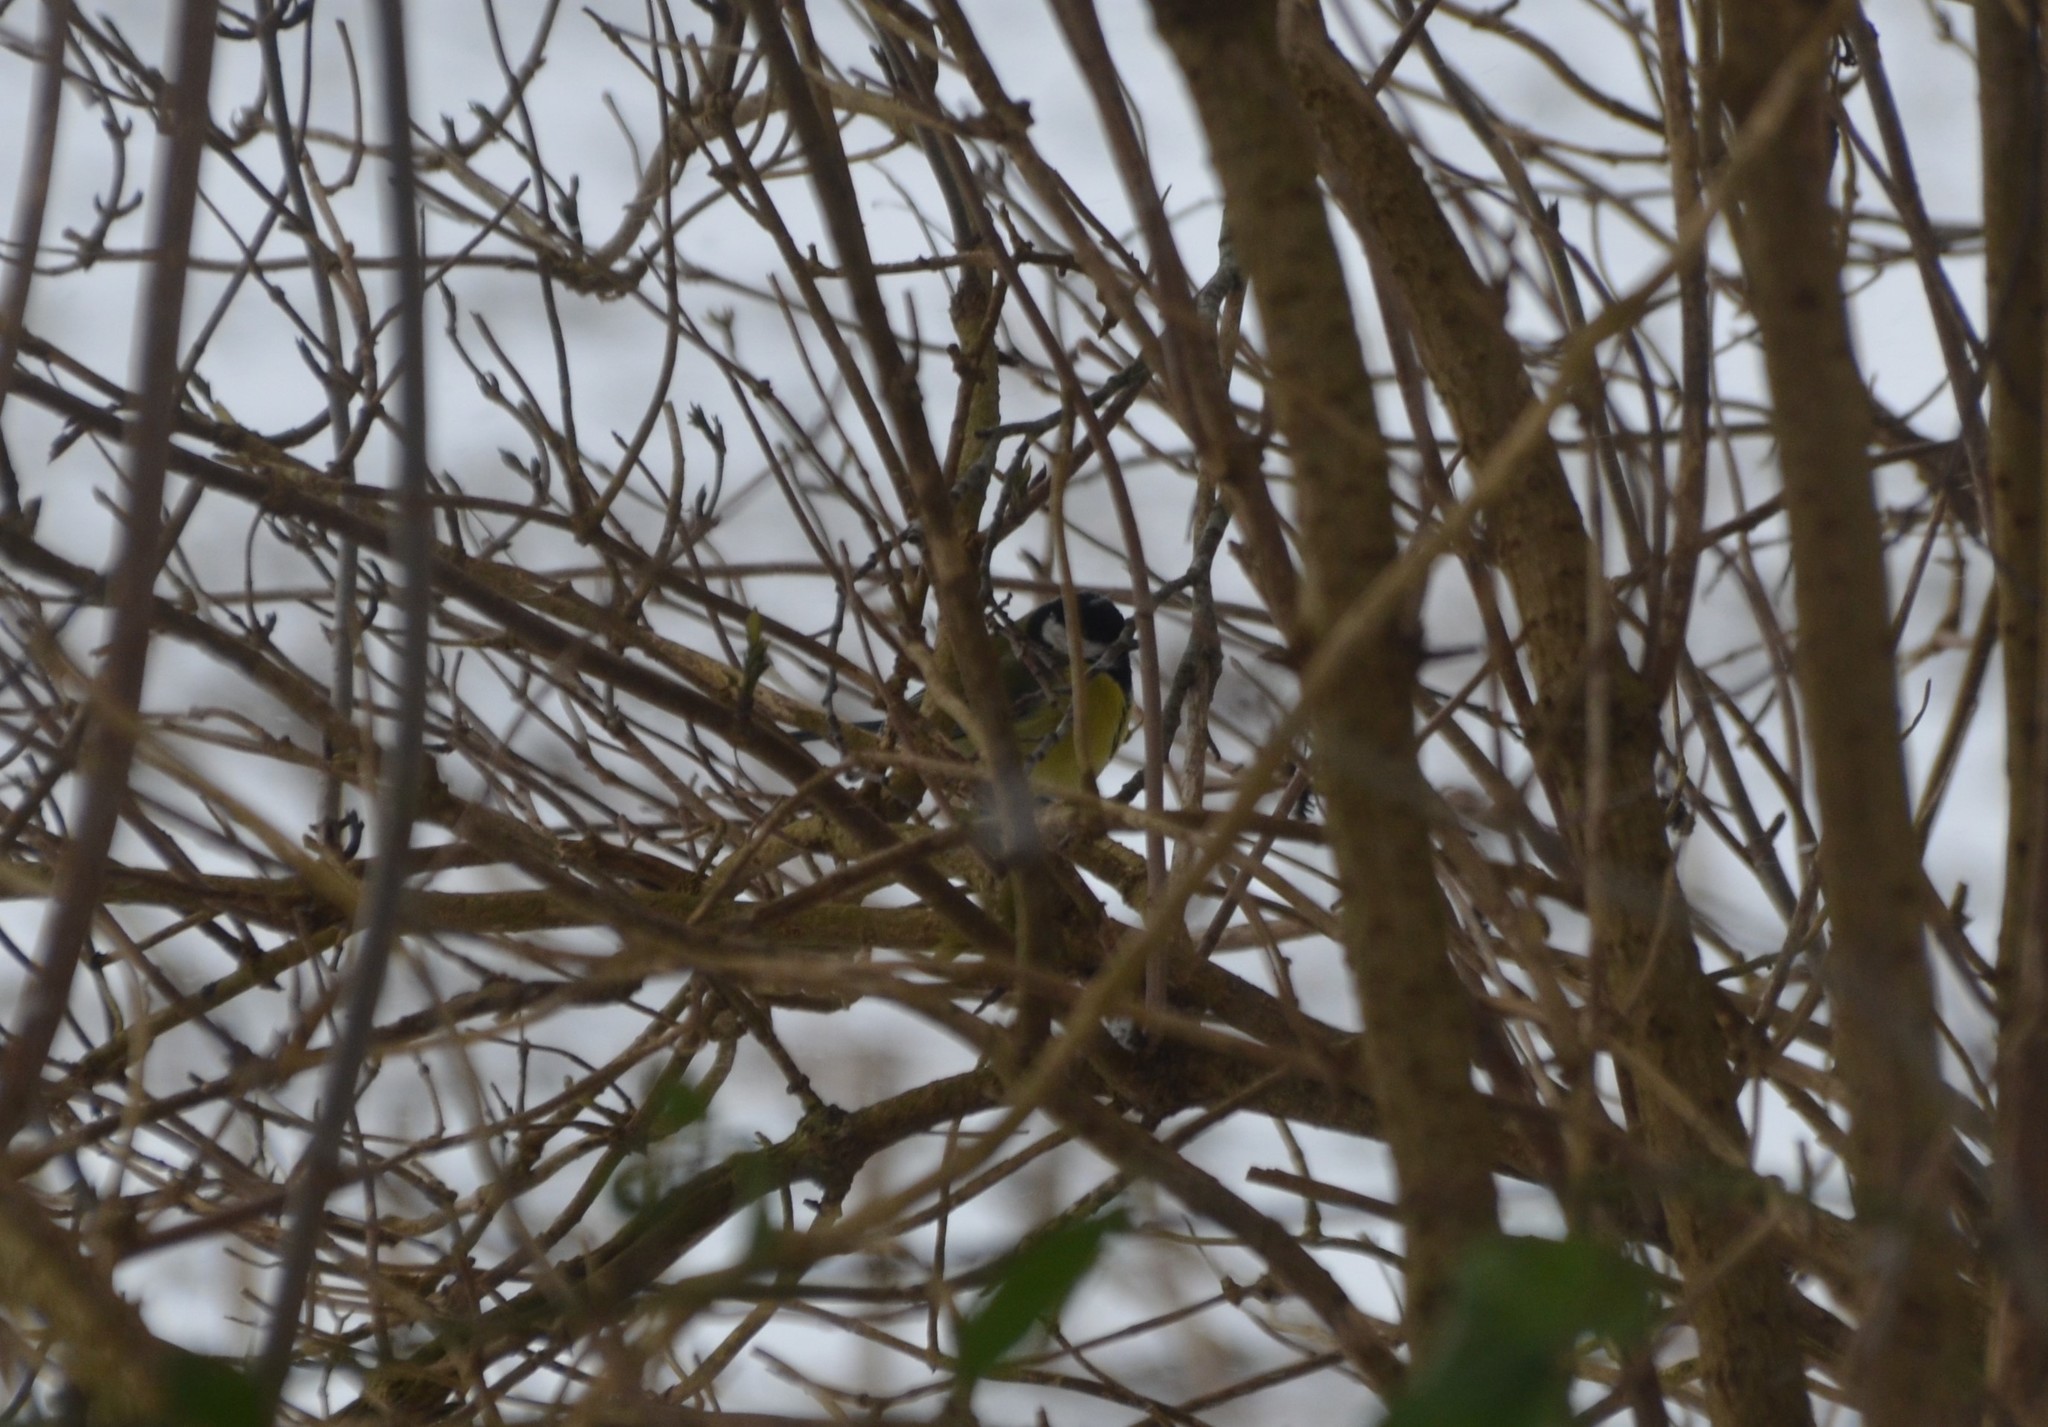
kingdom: Animalia
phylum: Chordata
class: Aves
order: Passeriformes
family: Paridae
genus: Parus
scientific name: Parus major
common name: Great tit
